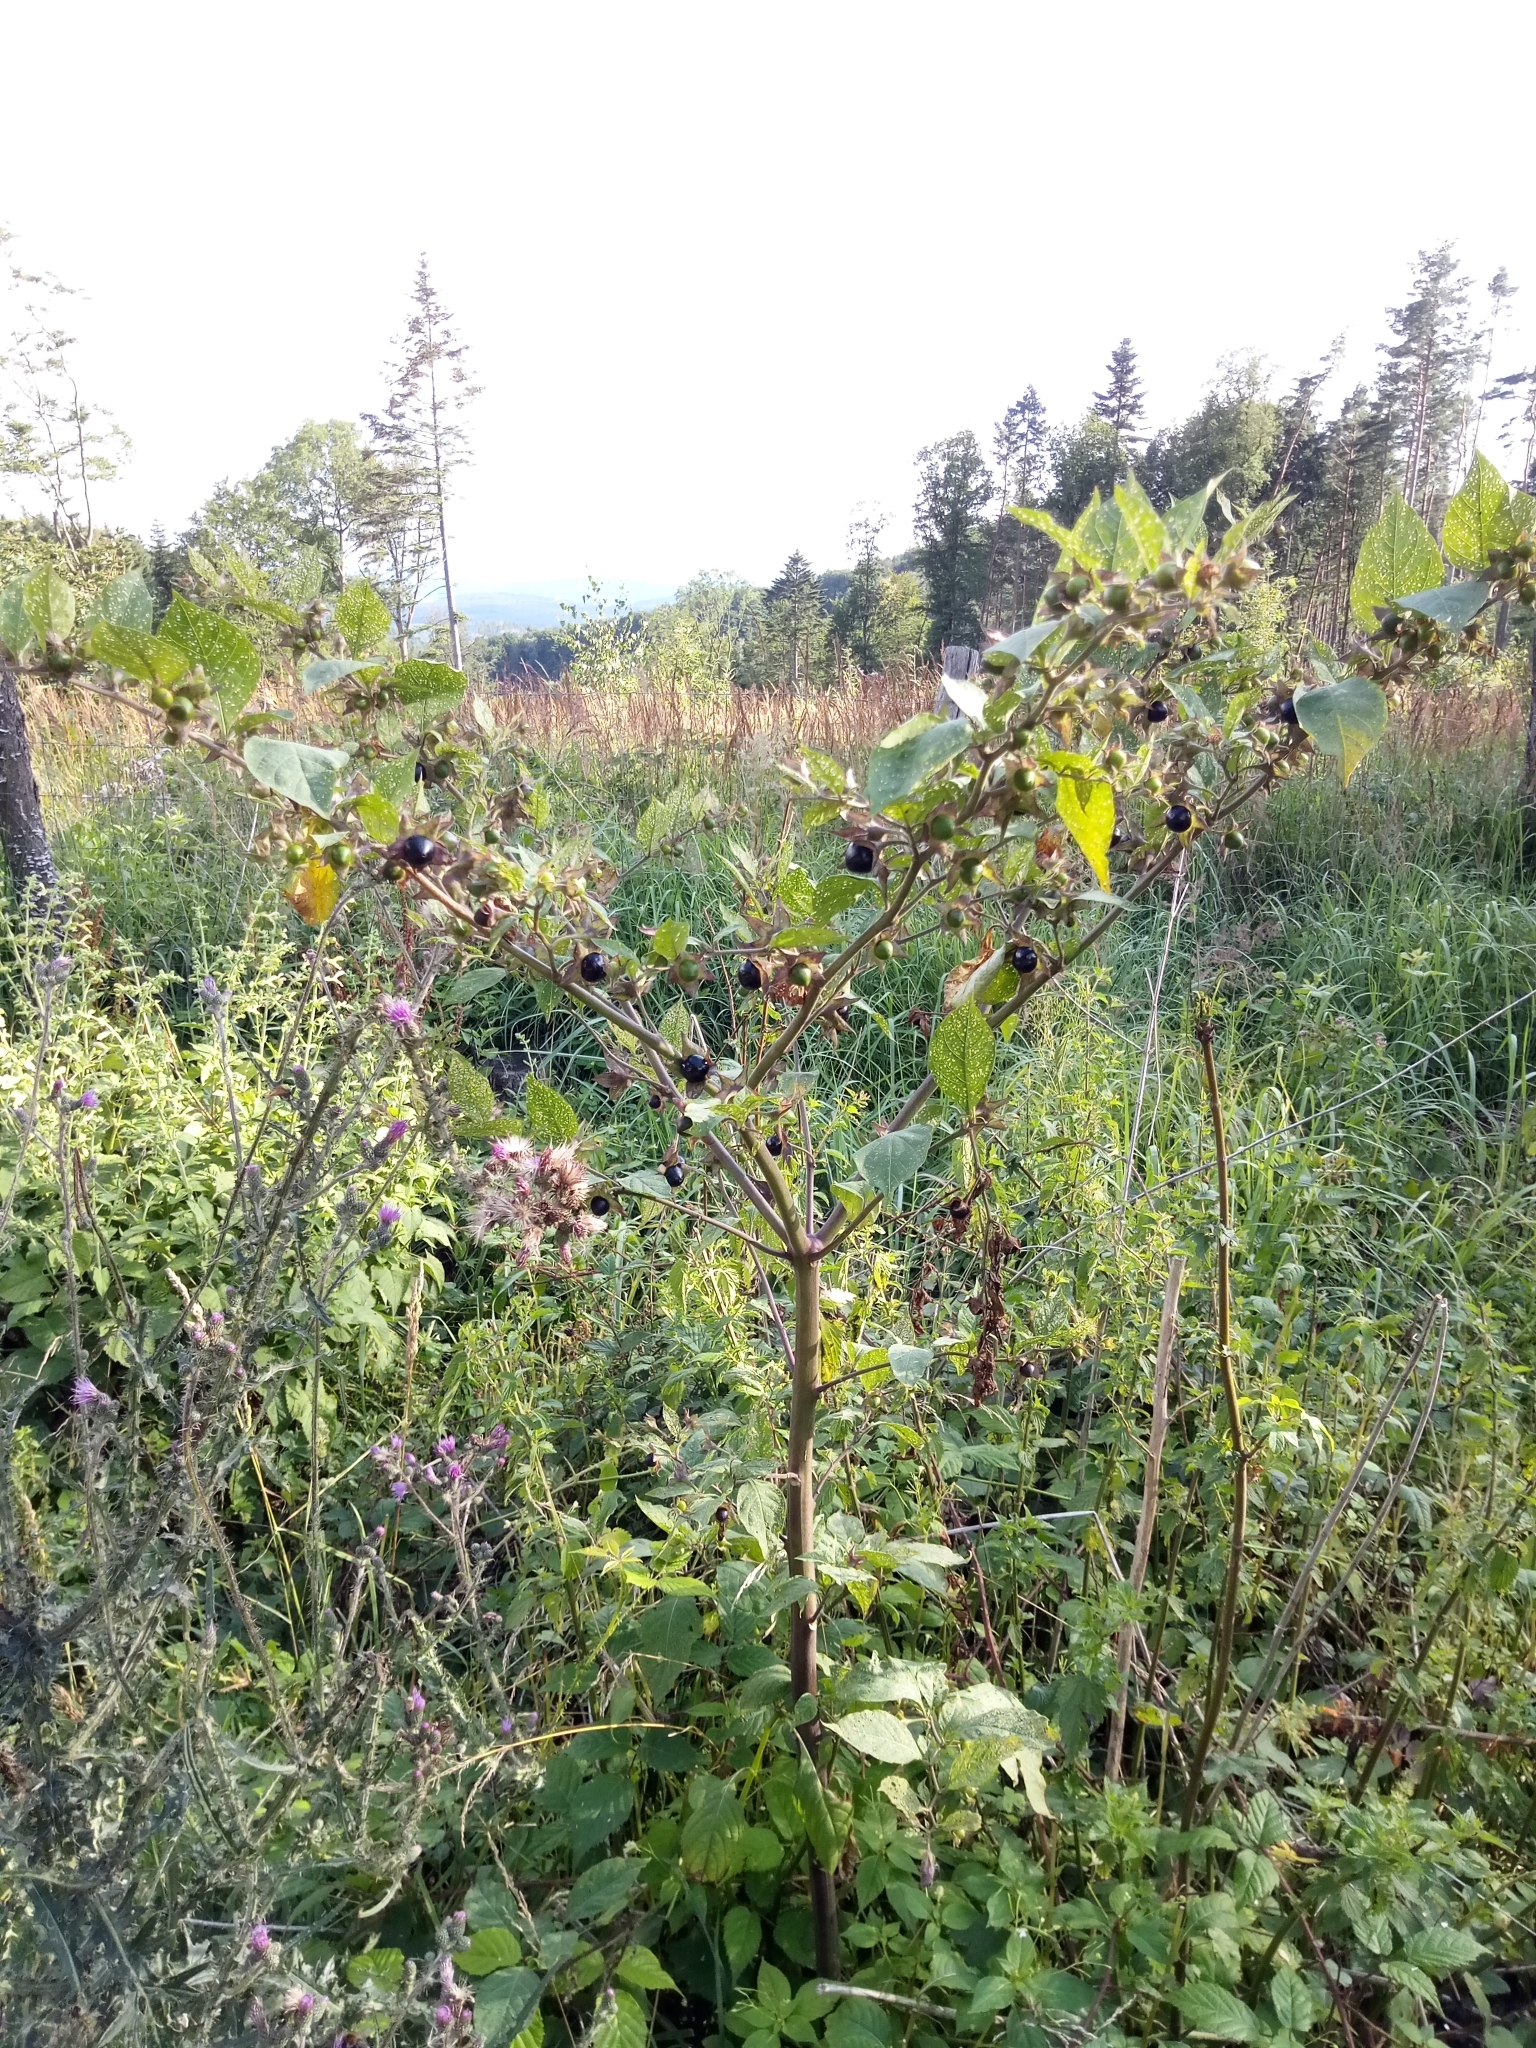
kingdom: Plantae
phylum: Tracheophyta
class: Magnoliopsida
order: Solanales
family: Solanaceae
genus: Atropa
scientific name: Atropa belladonna
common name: Deadly nightshade
